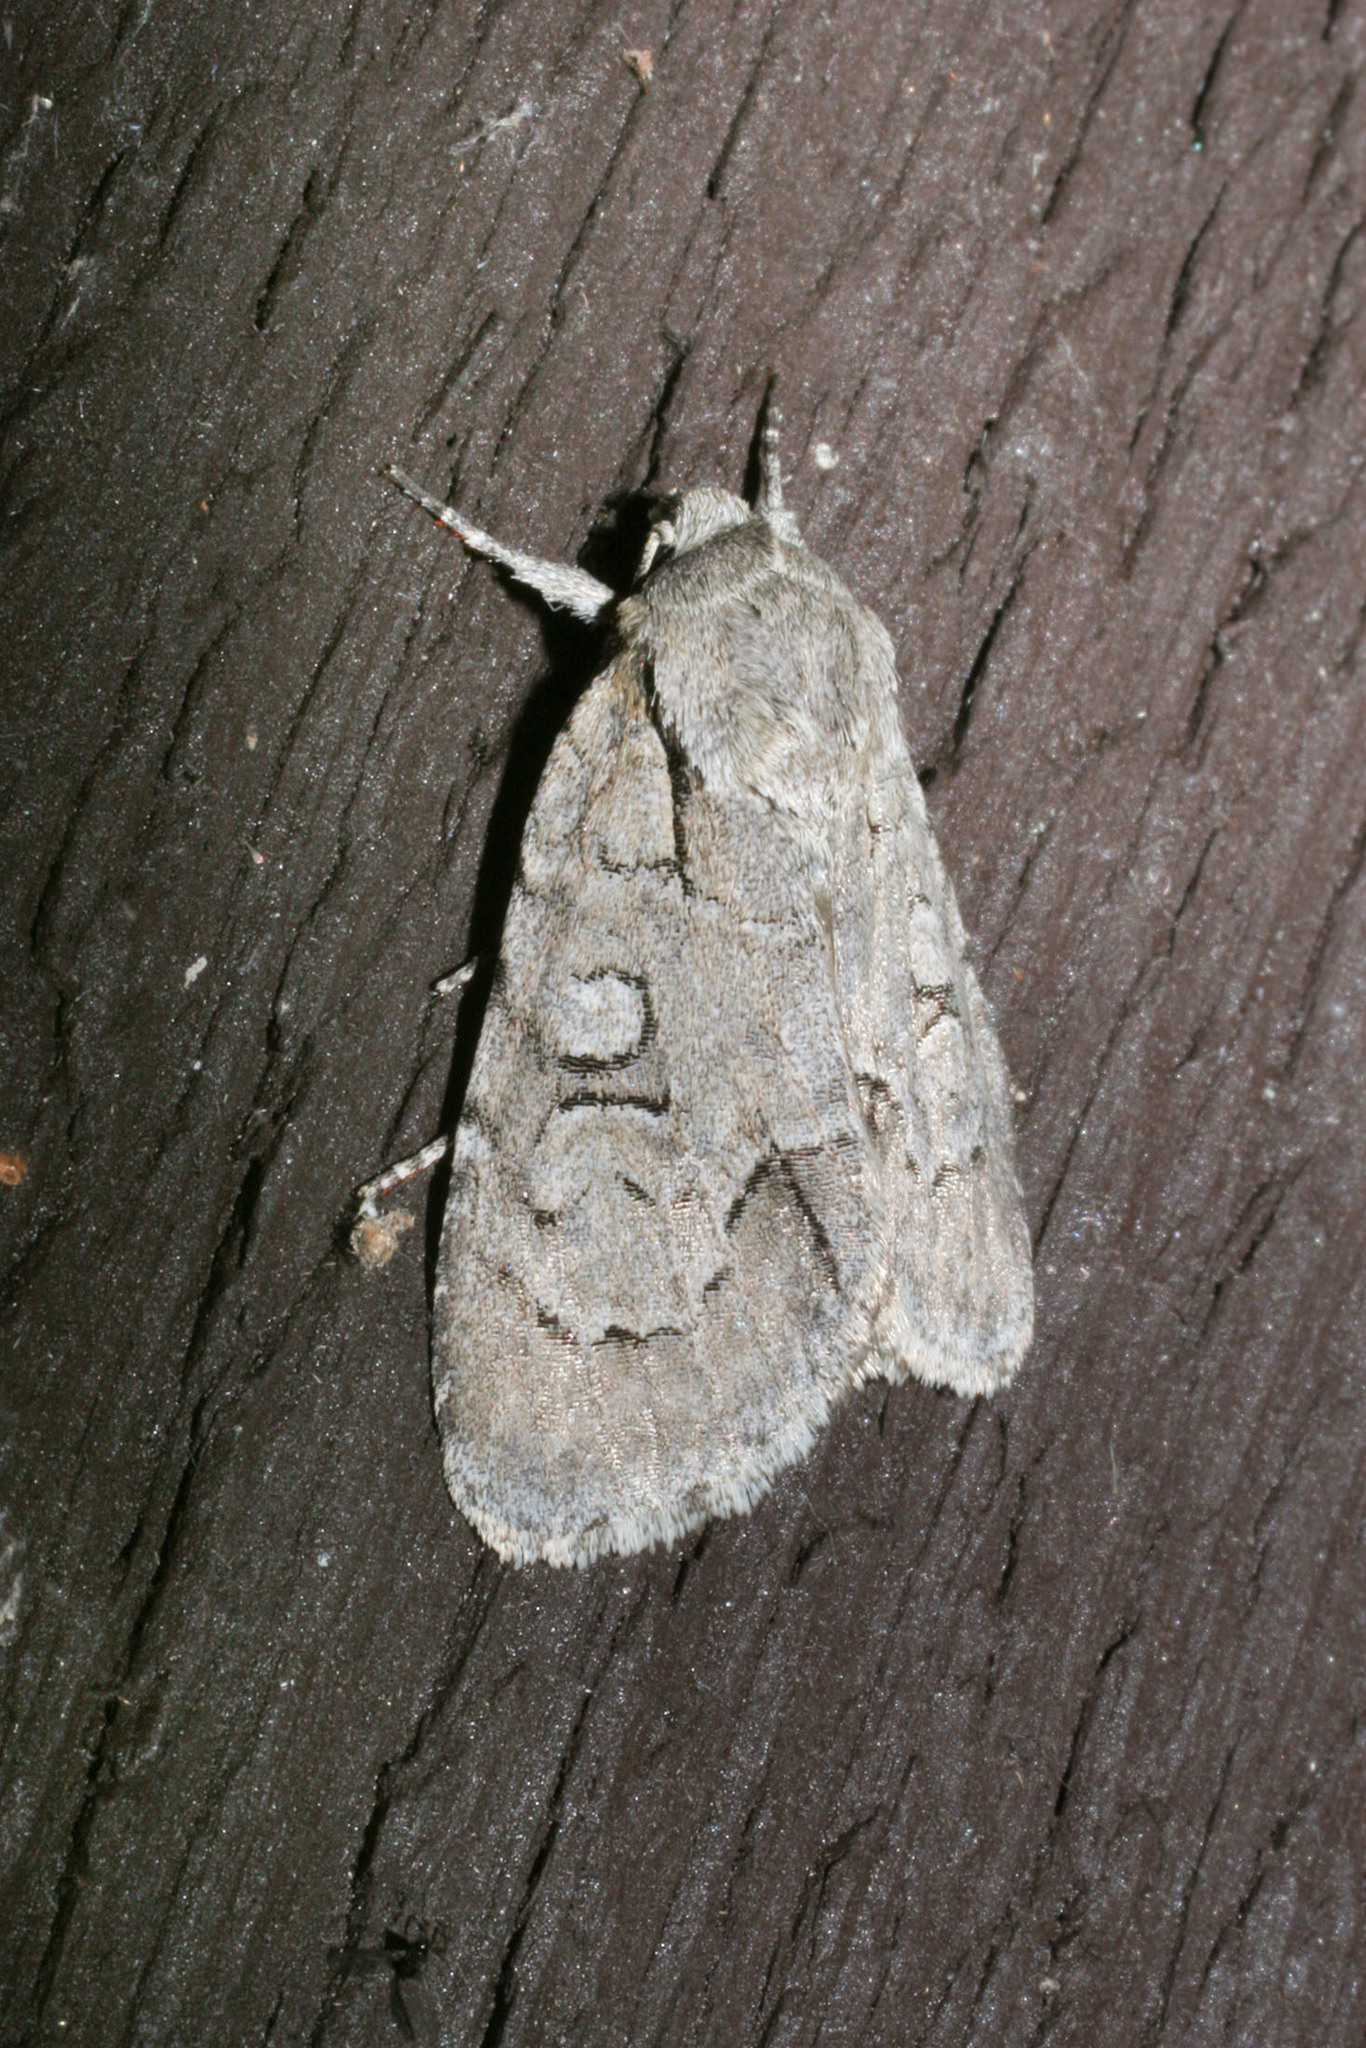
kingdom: Animalia
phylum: Arthropoda
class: Insecta
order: Lepidoptera
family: Noctuidae
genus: Acronicta
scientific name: Acronicta radcliffei
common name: Radcliffe's dagger
